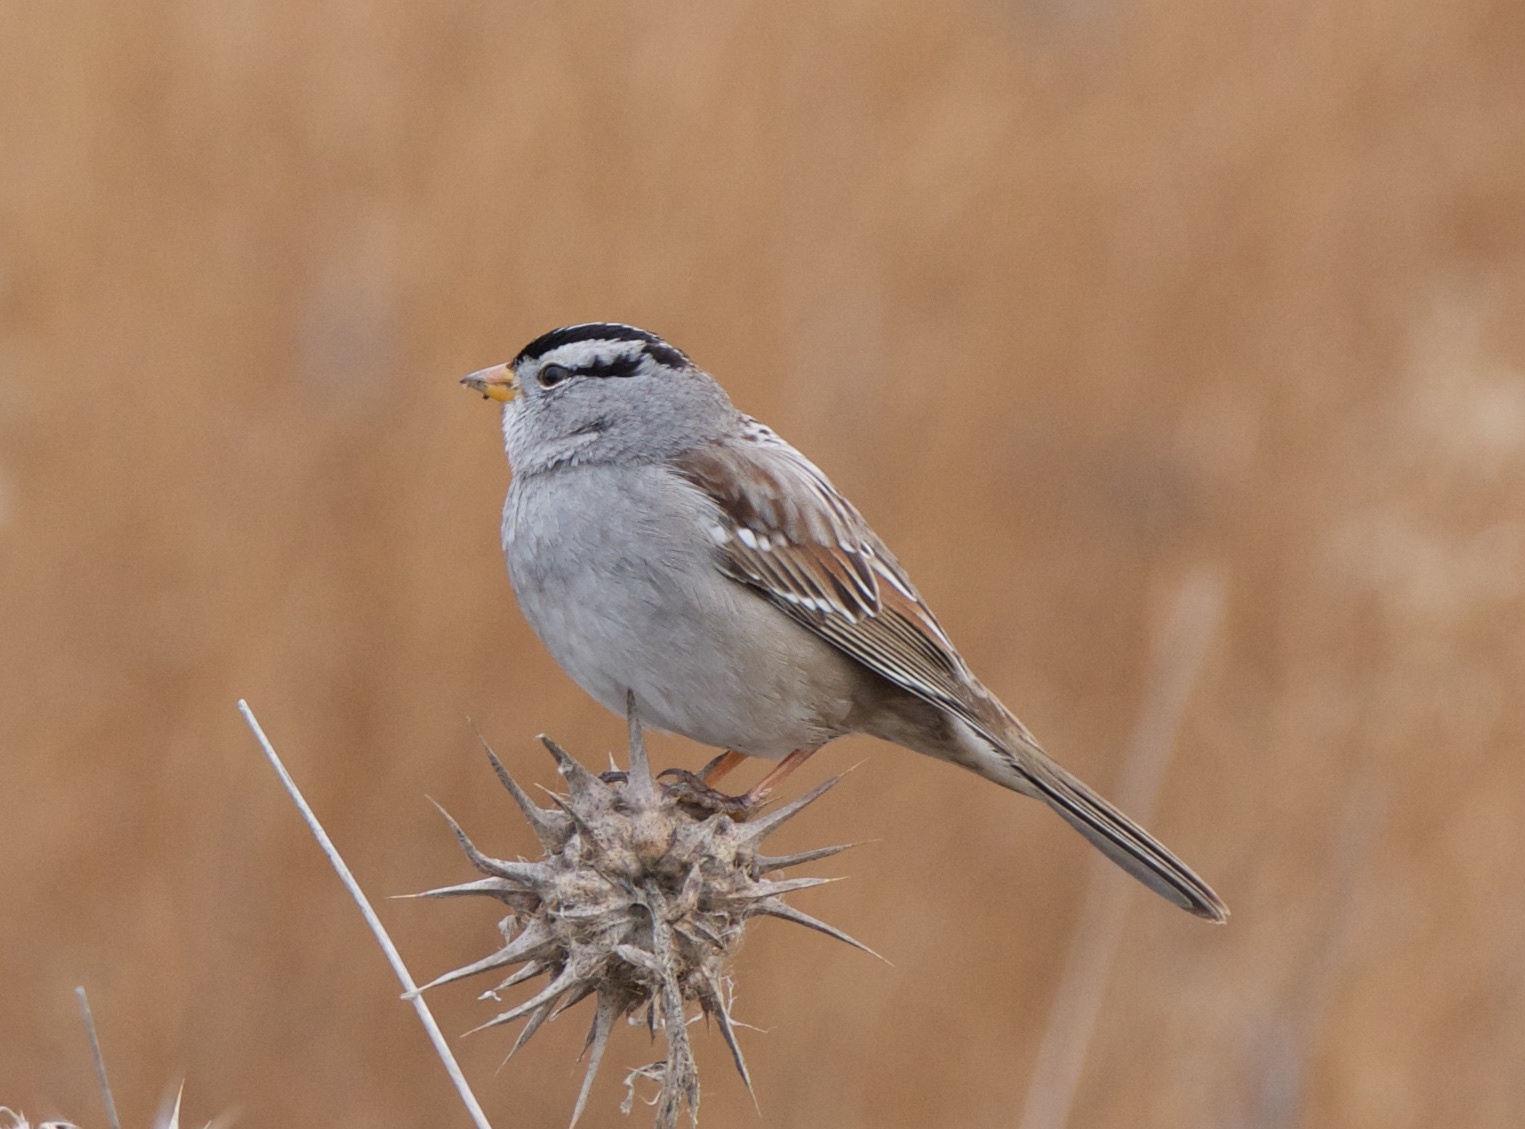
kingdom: Animalia
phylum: Chordata
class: Aves
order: Passeriformes
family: Passerellidae
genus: Zonotrichia
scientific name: Zonotrichia leucophrys
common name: White-crowned sparrow
